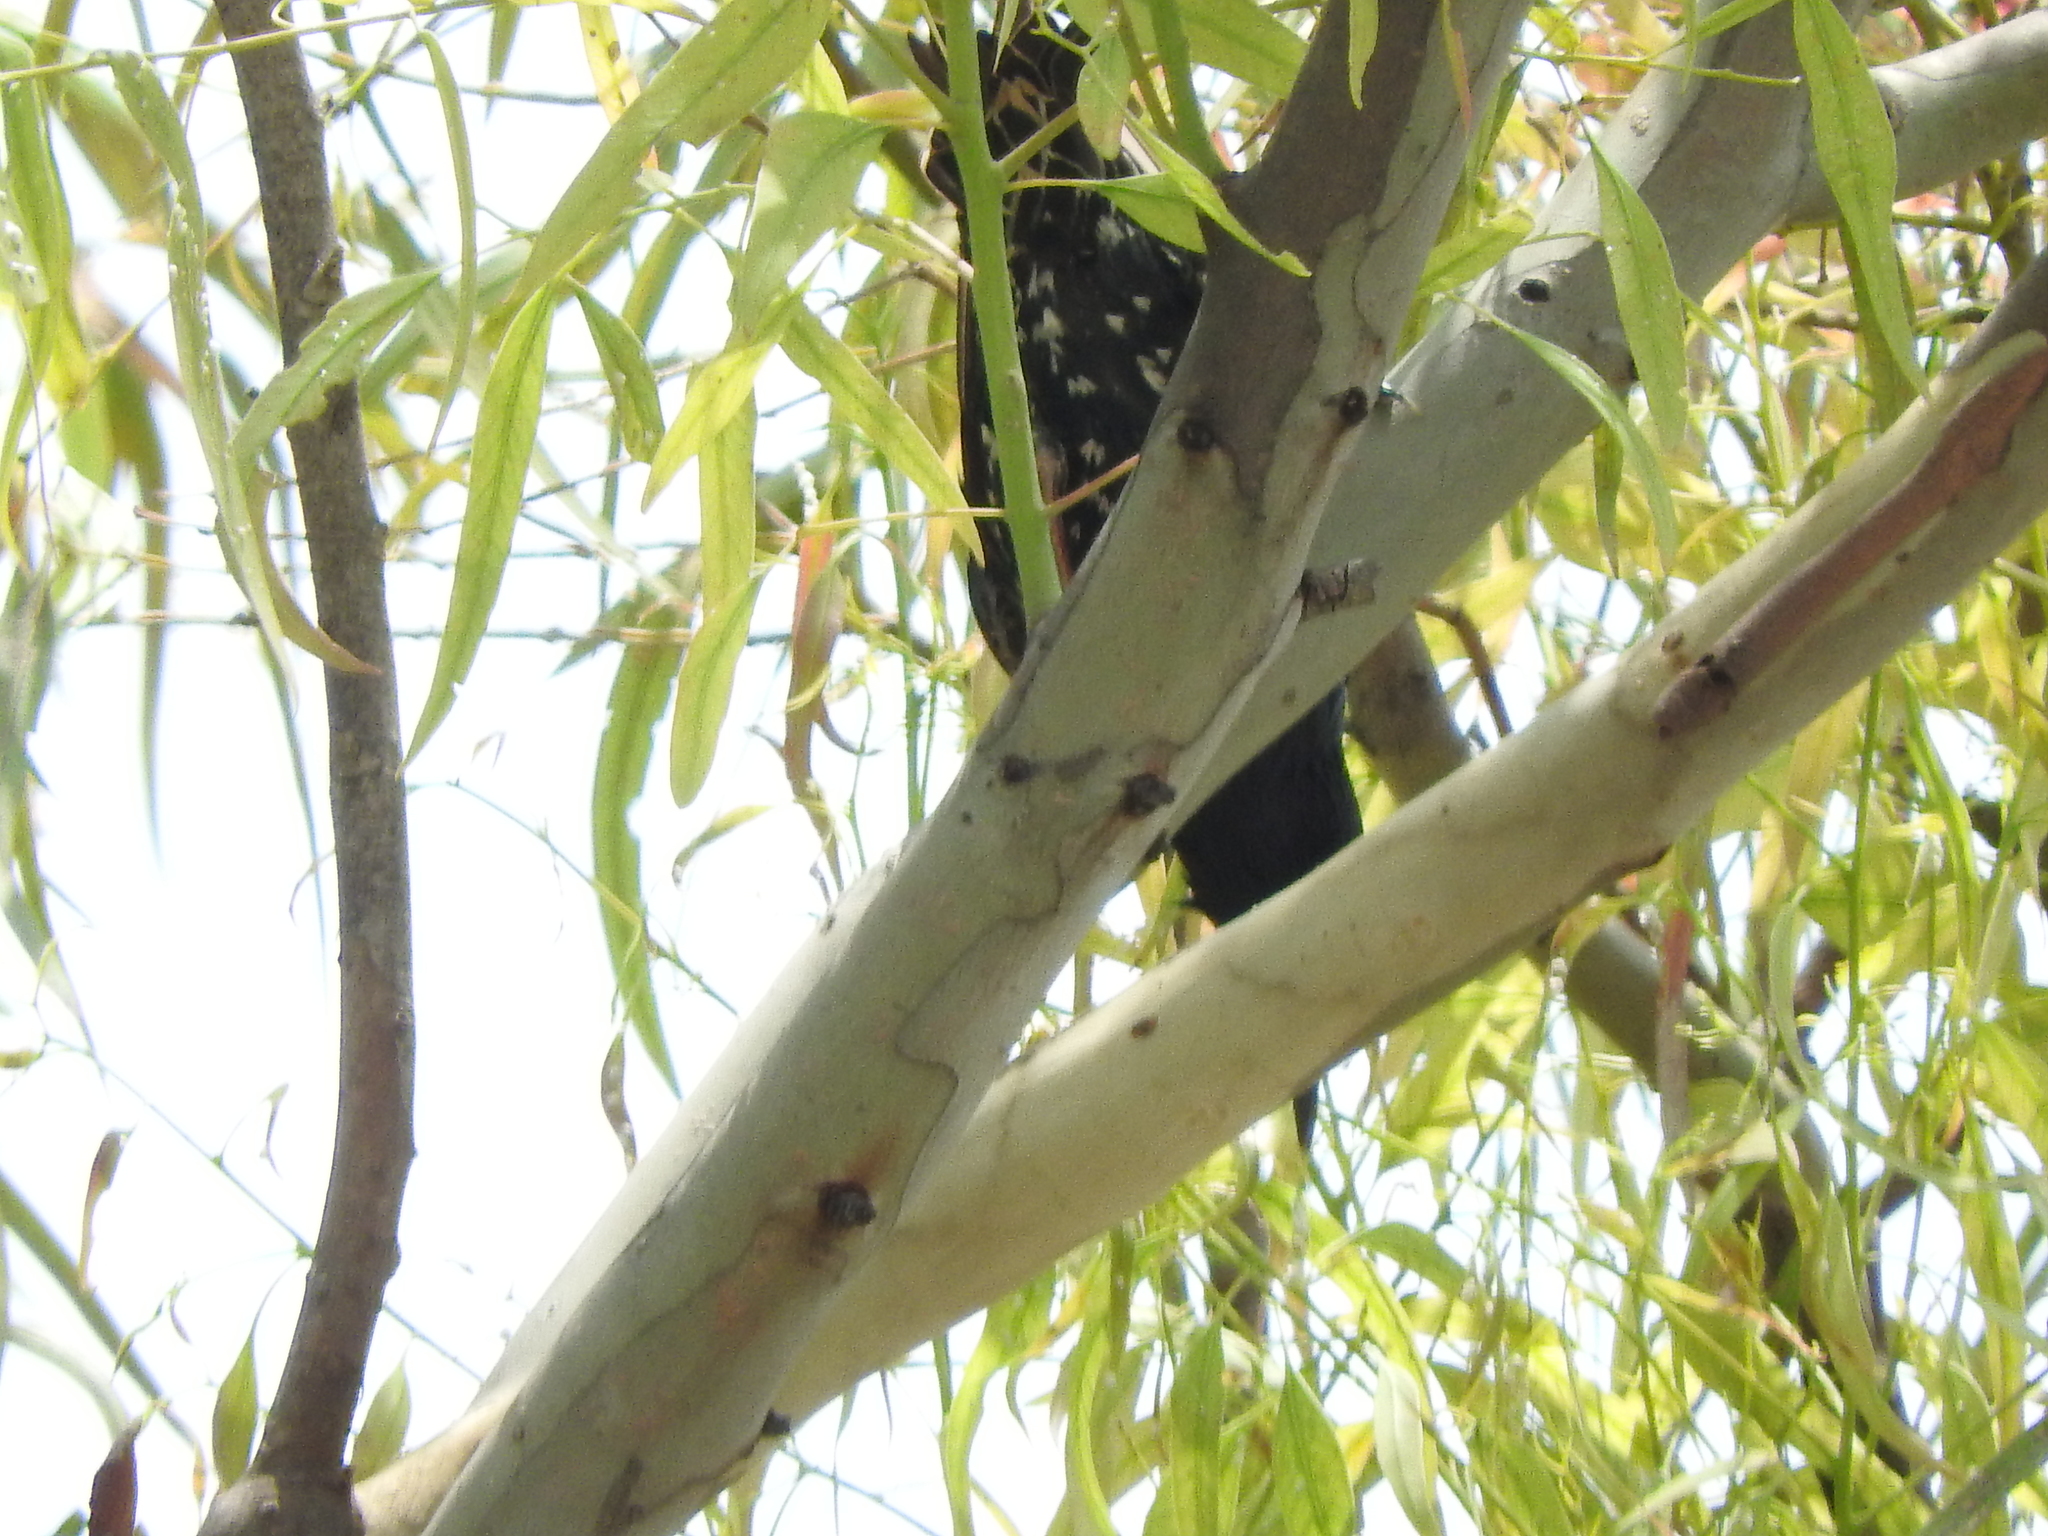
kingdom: Animalia
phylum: Chordata
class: Aves
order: Passeriformes
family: Sturnidae
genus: Sturnus
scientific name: Sturnus vulgaris
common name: Common starling
